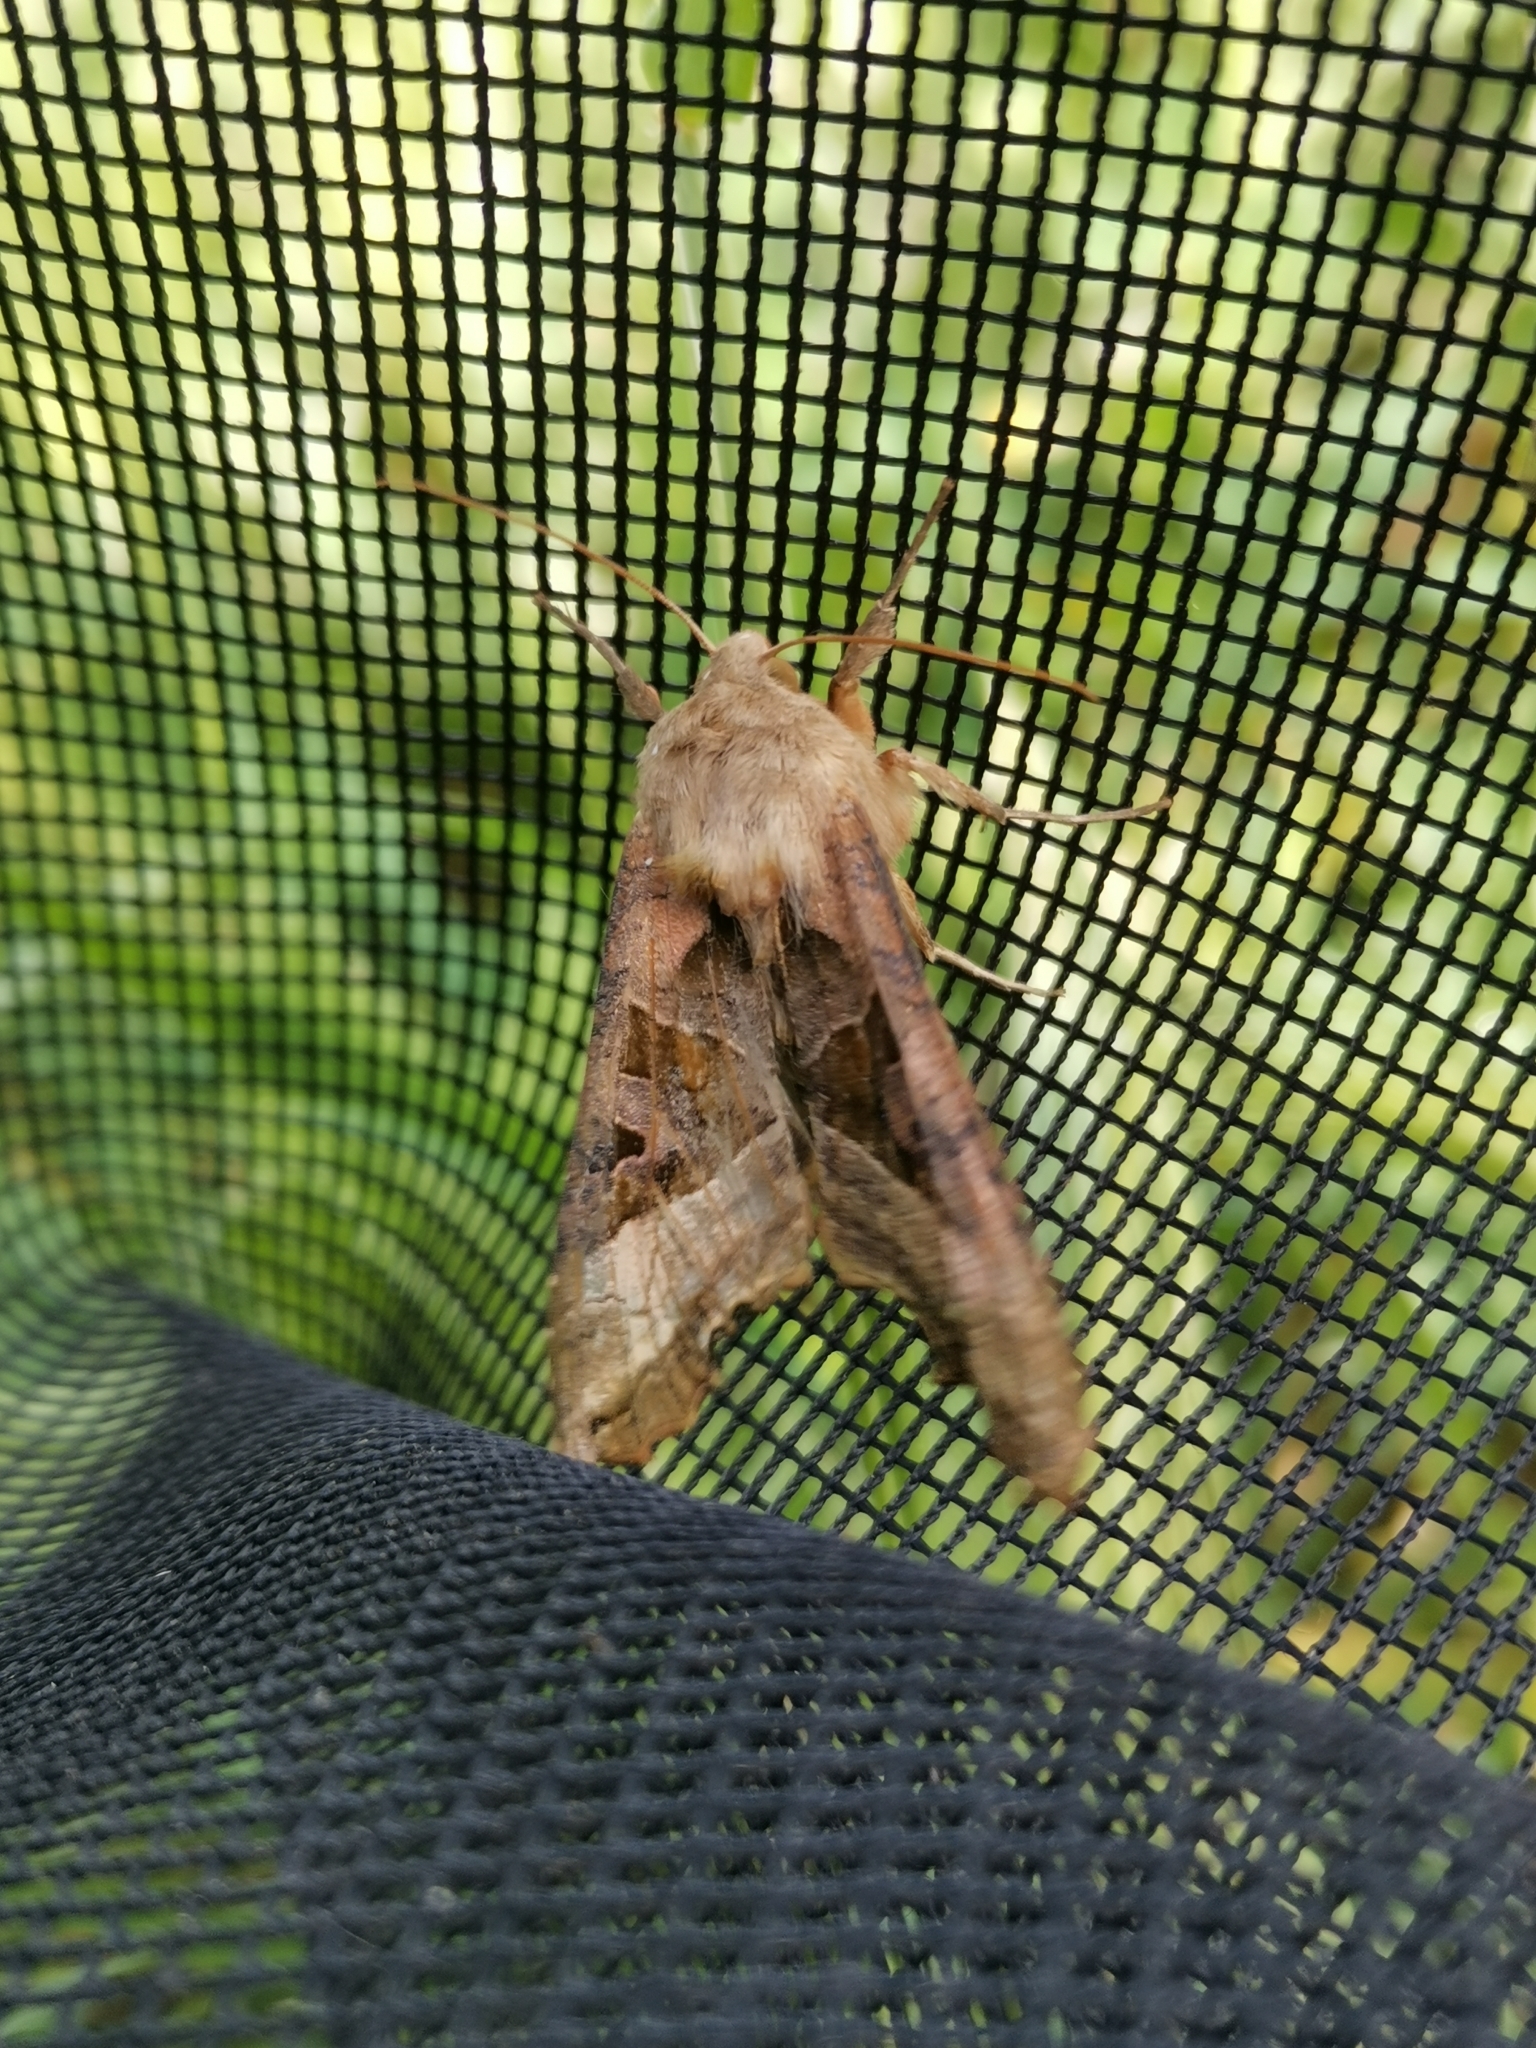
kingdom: Animalia
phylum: Arthropoda
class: Insecta
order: Lepidoptera
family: Noctuidae
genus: Phlogophora
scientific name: Phlogophora meticulosa
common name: Angle shades
